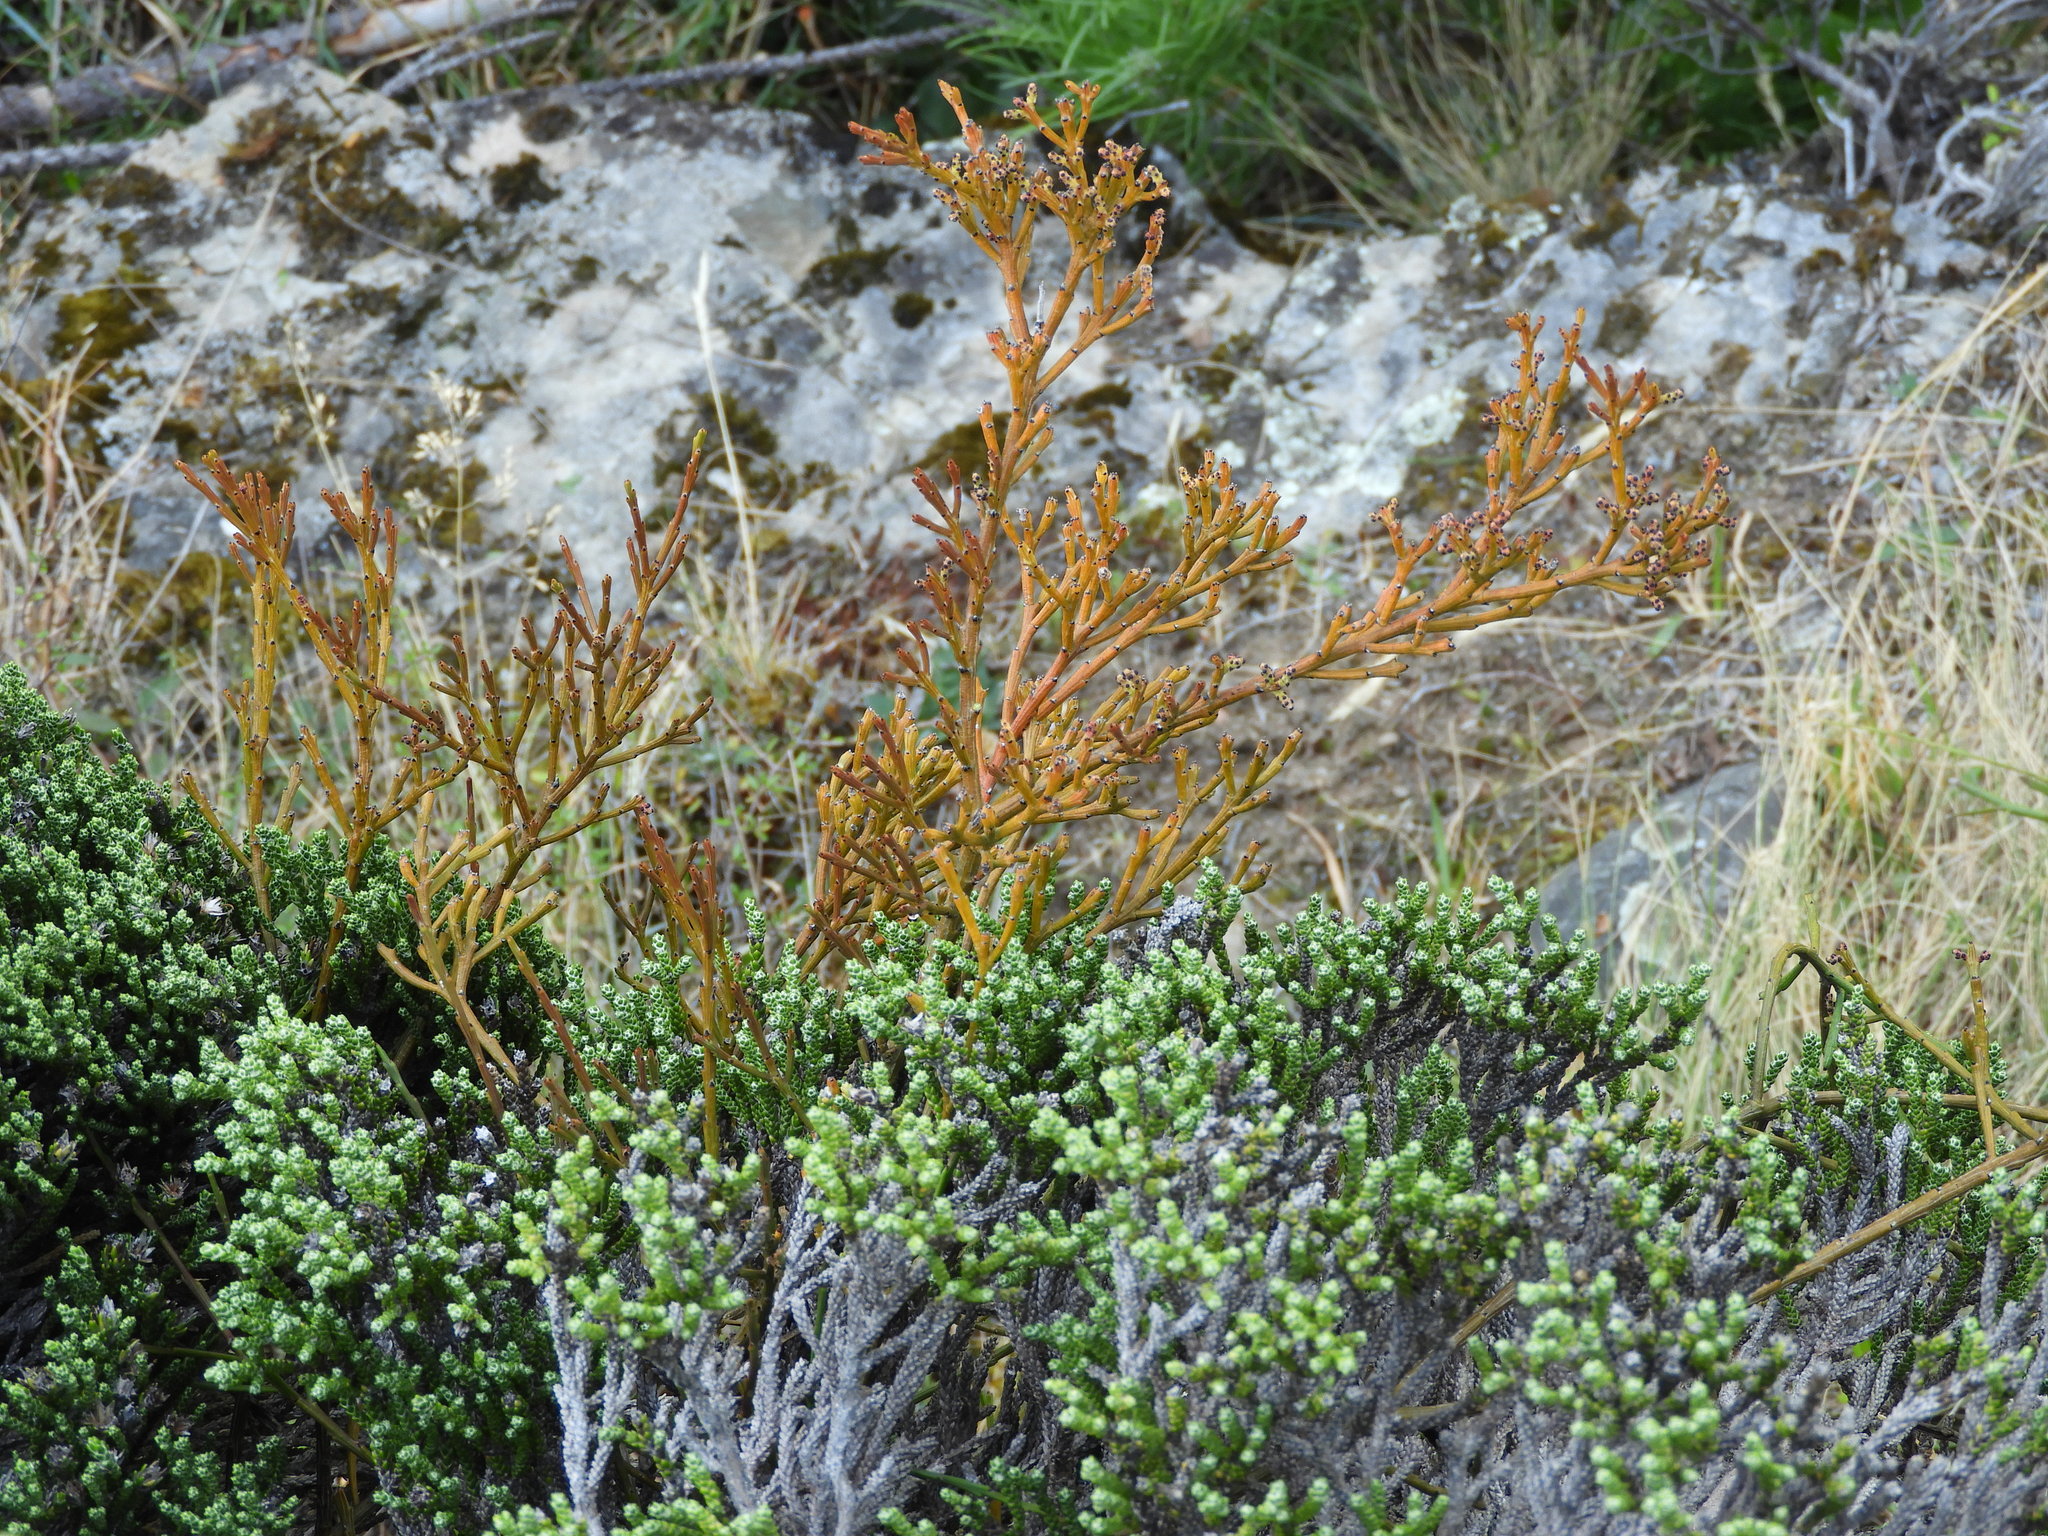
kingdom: Plantae
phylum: Tracheophyta
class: Magnoliopsida
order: Santalales
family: Santalaceae
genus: Exocarpos
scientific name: Exocarpos bidwillii
